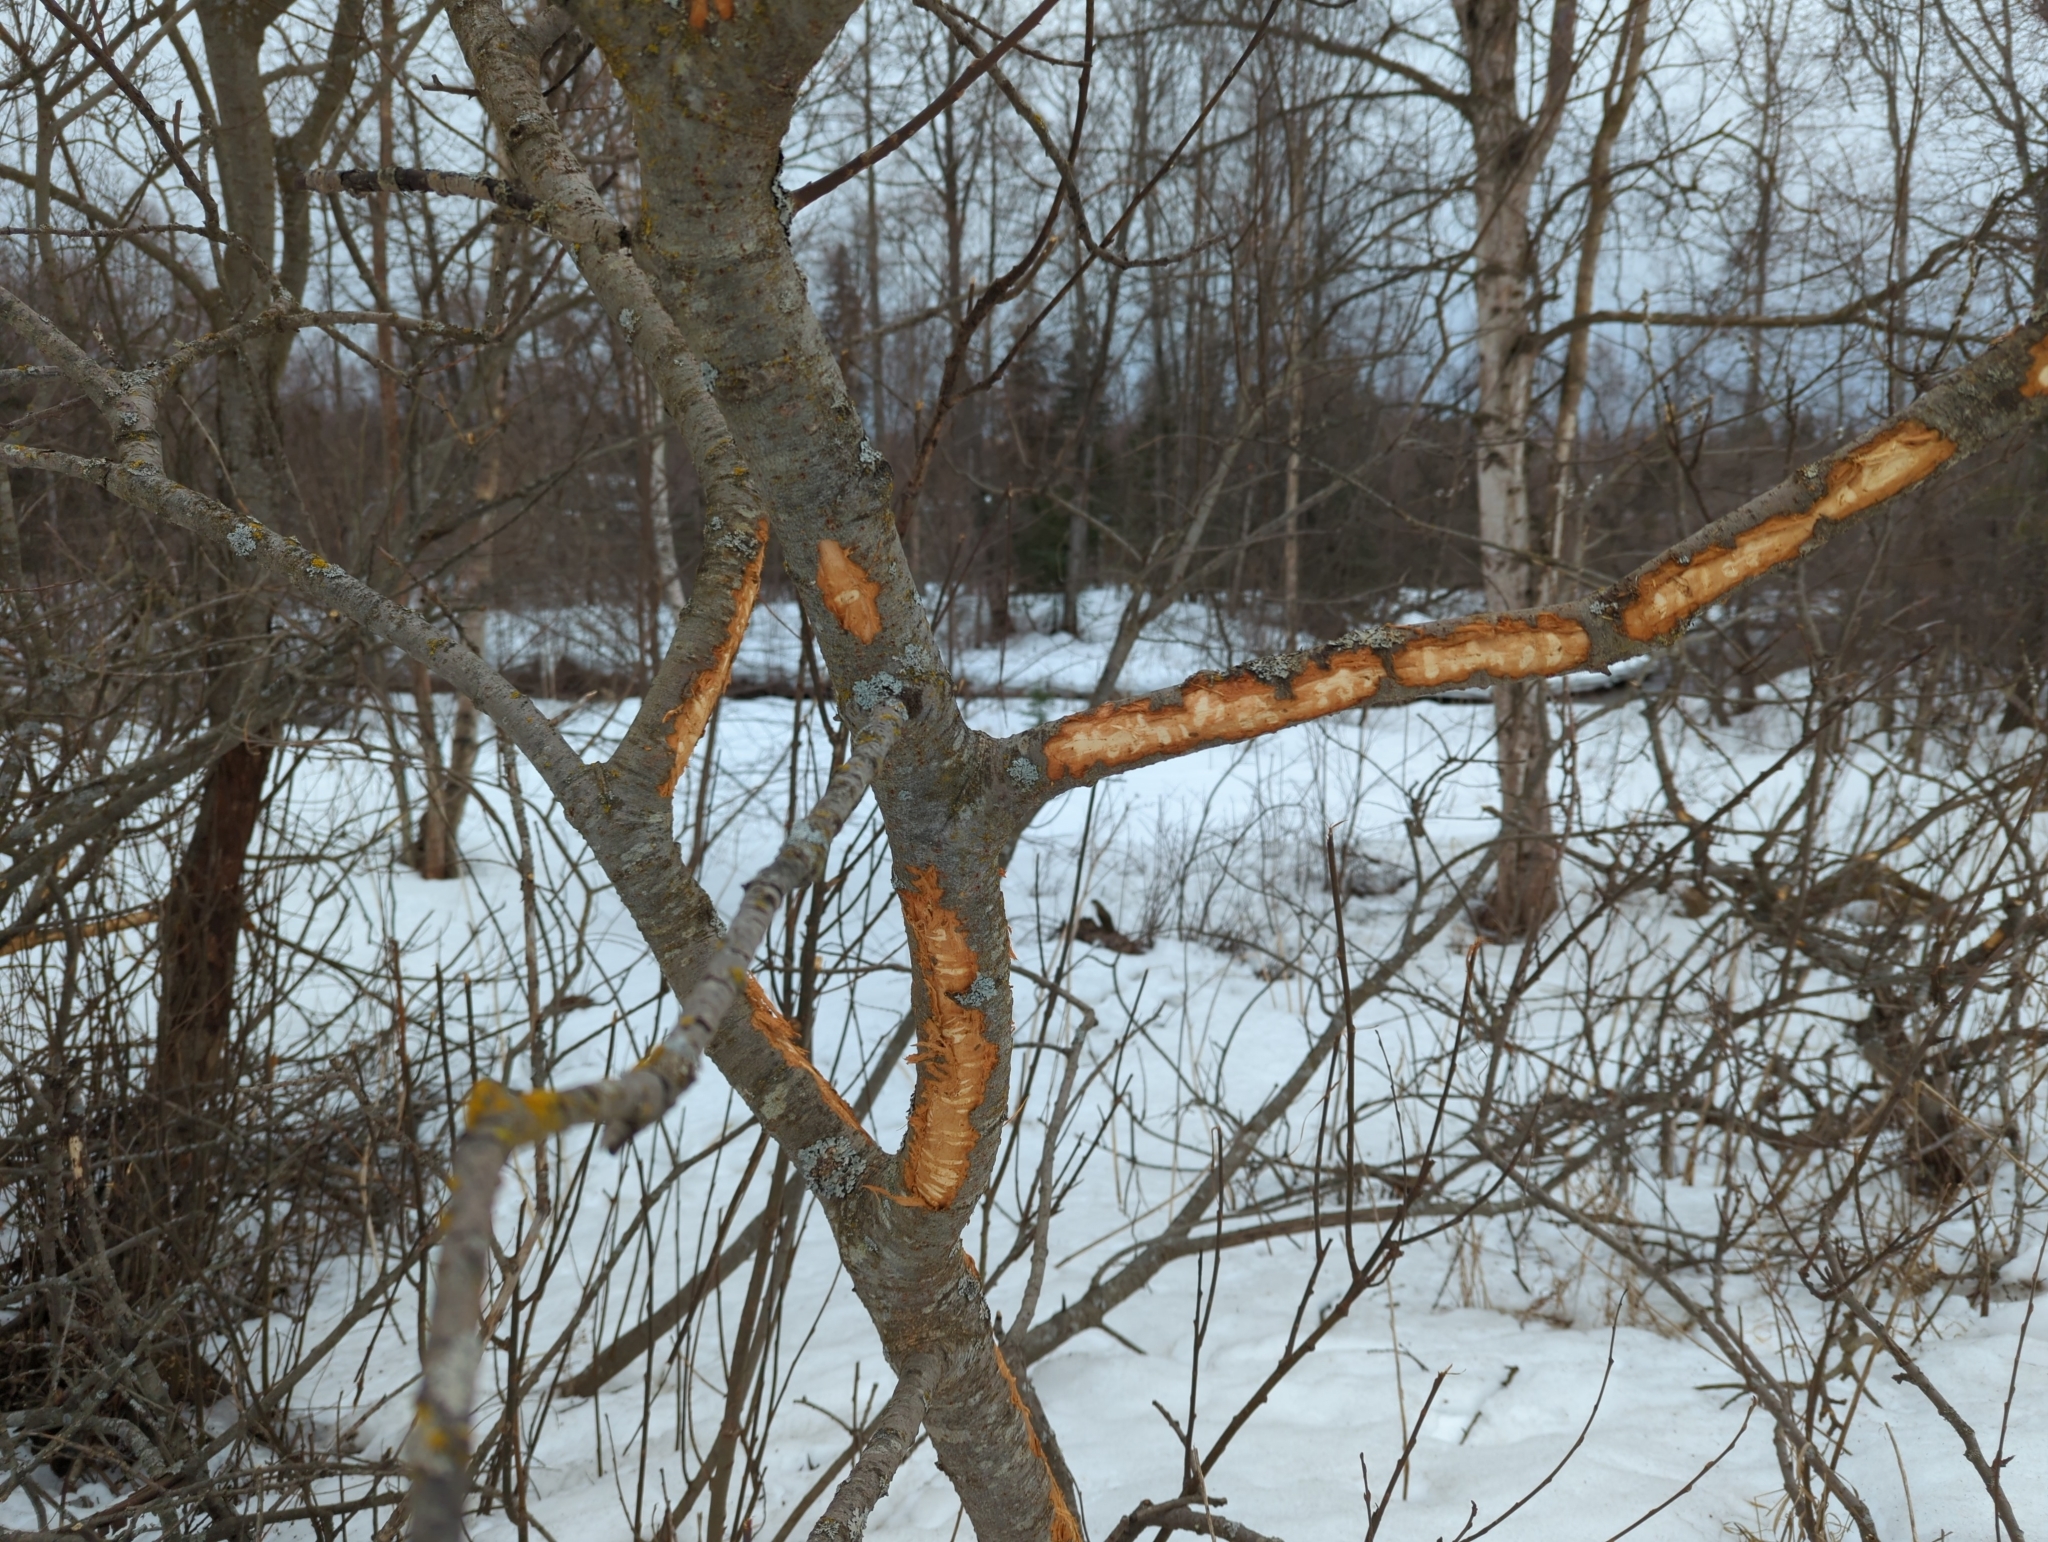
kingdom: Animalia
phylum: Chordata
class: Mammalia
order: Artiodactyla
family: Cervidae
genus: Alces
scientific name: Alces alces
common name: Moose
